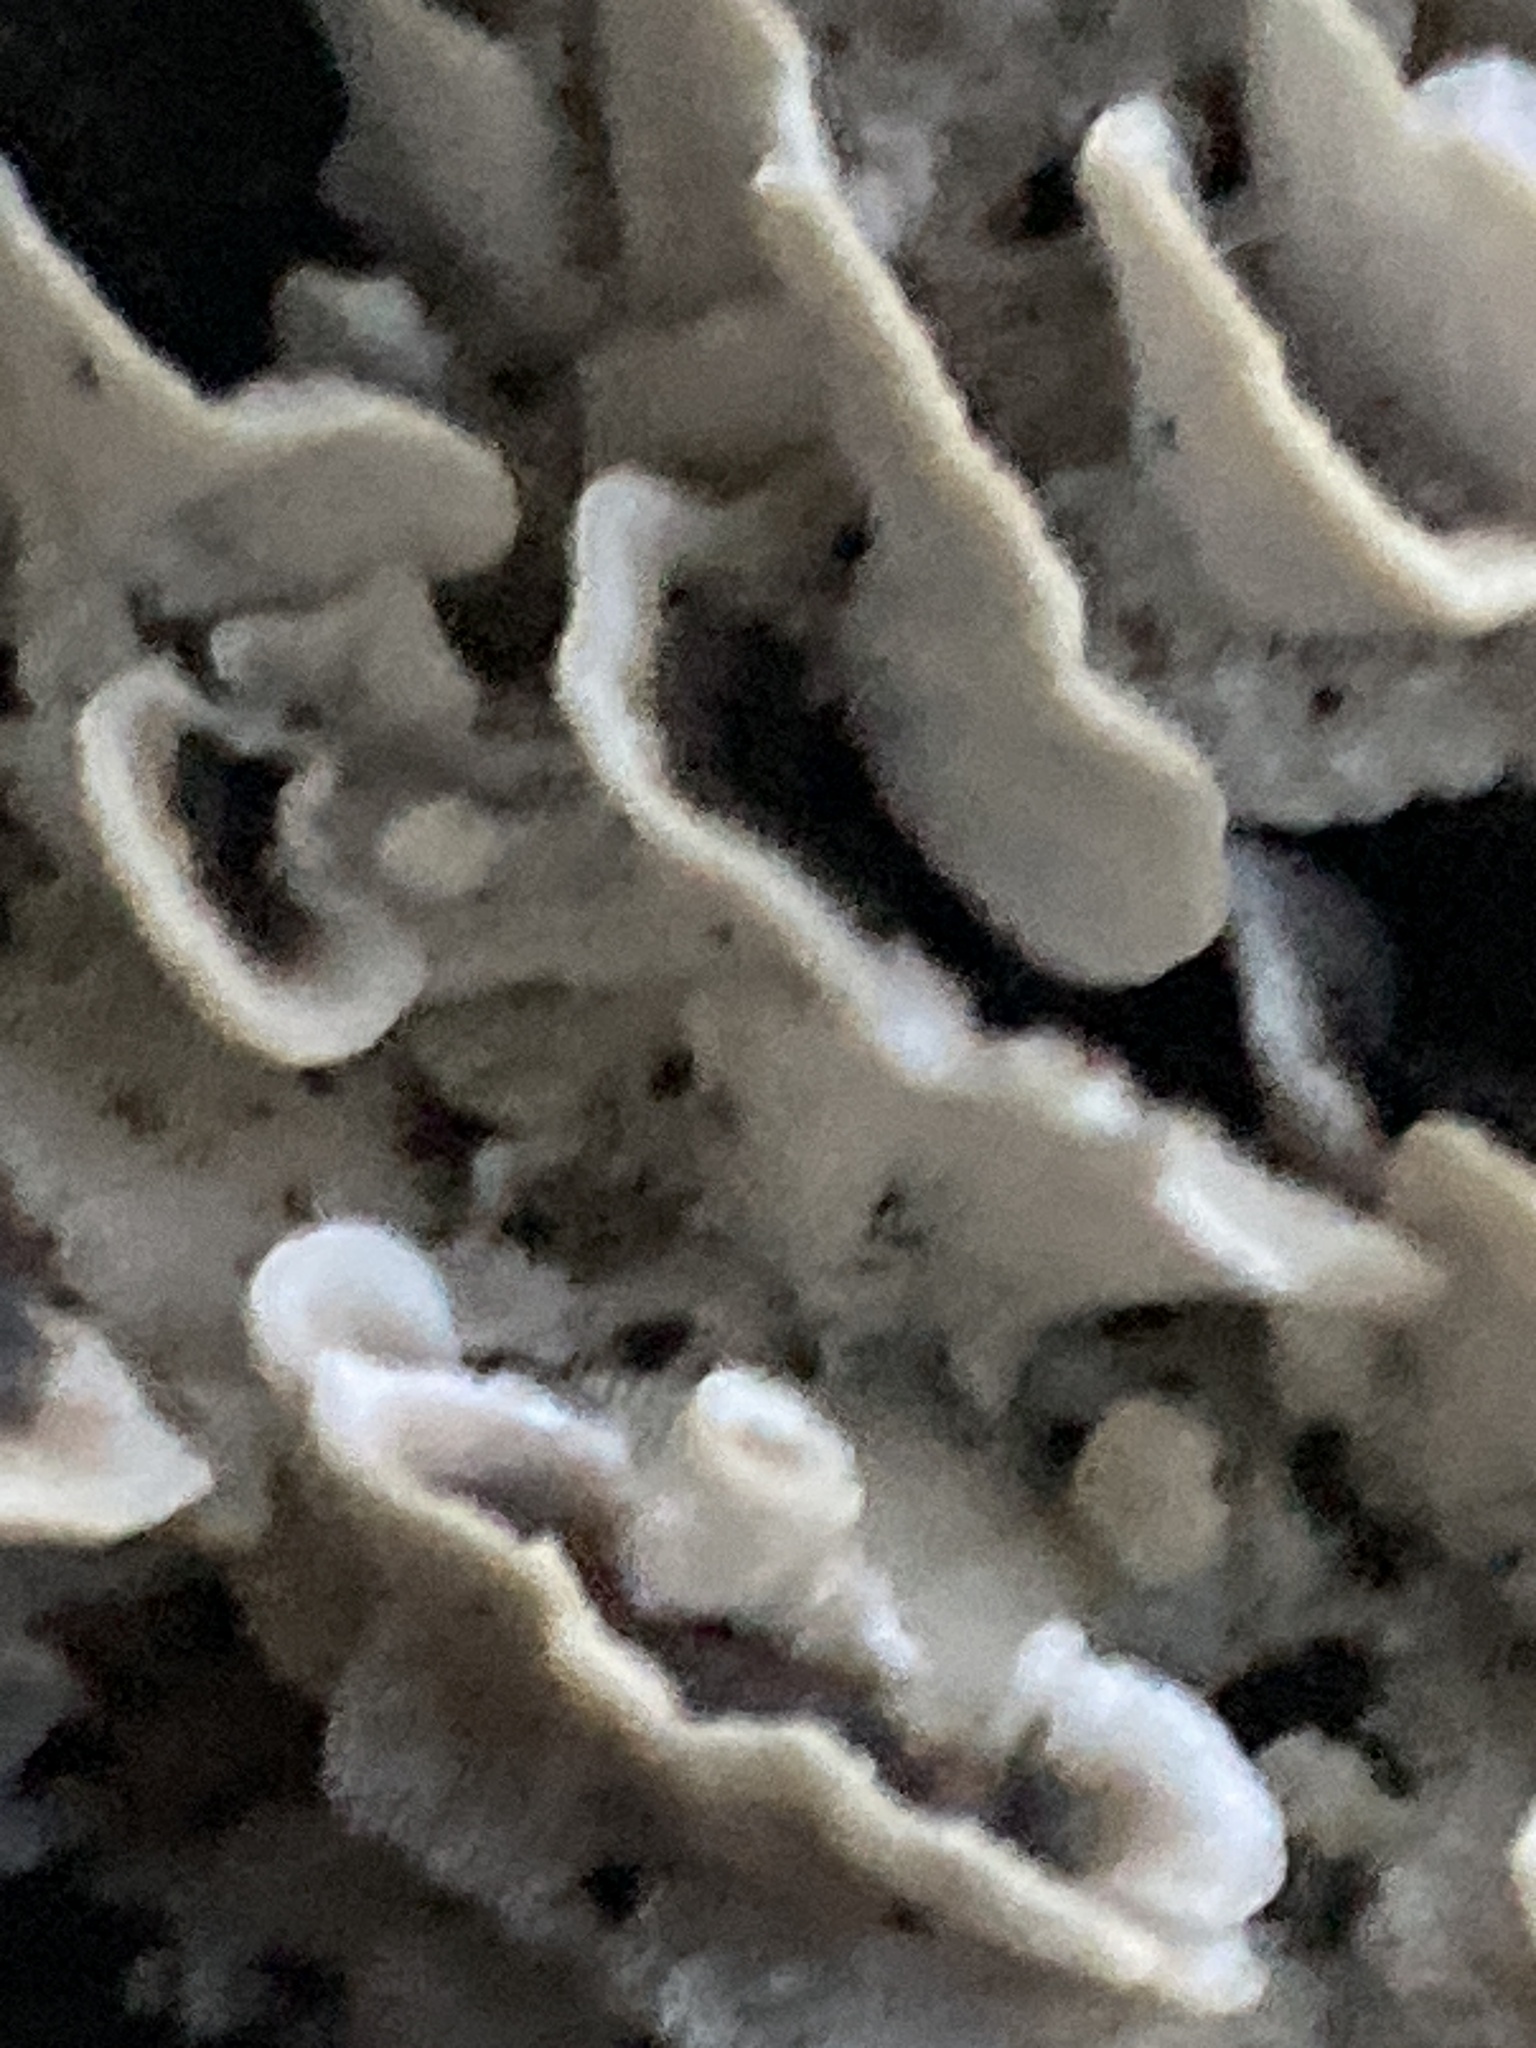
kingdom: Fungi
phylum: Basidiomycota
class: Agaricomycetes
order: Polyporales
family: Phanerochaetaceae
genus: Bjerkandera
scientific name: Bjerkandera adusta
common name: Smoky bracket
